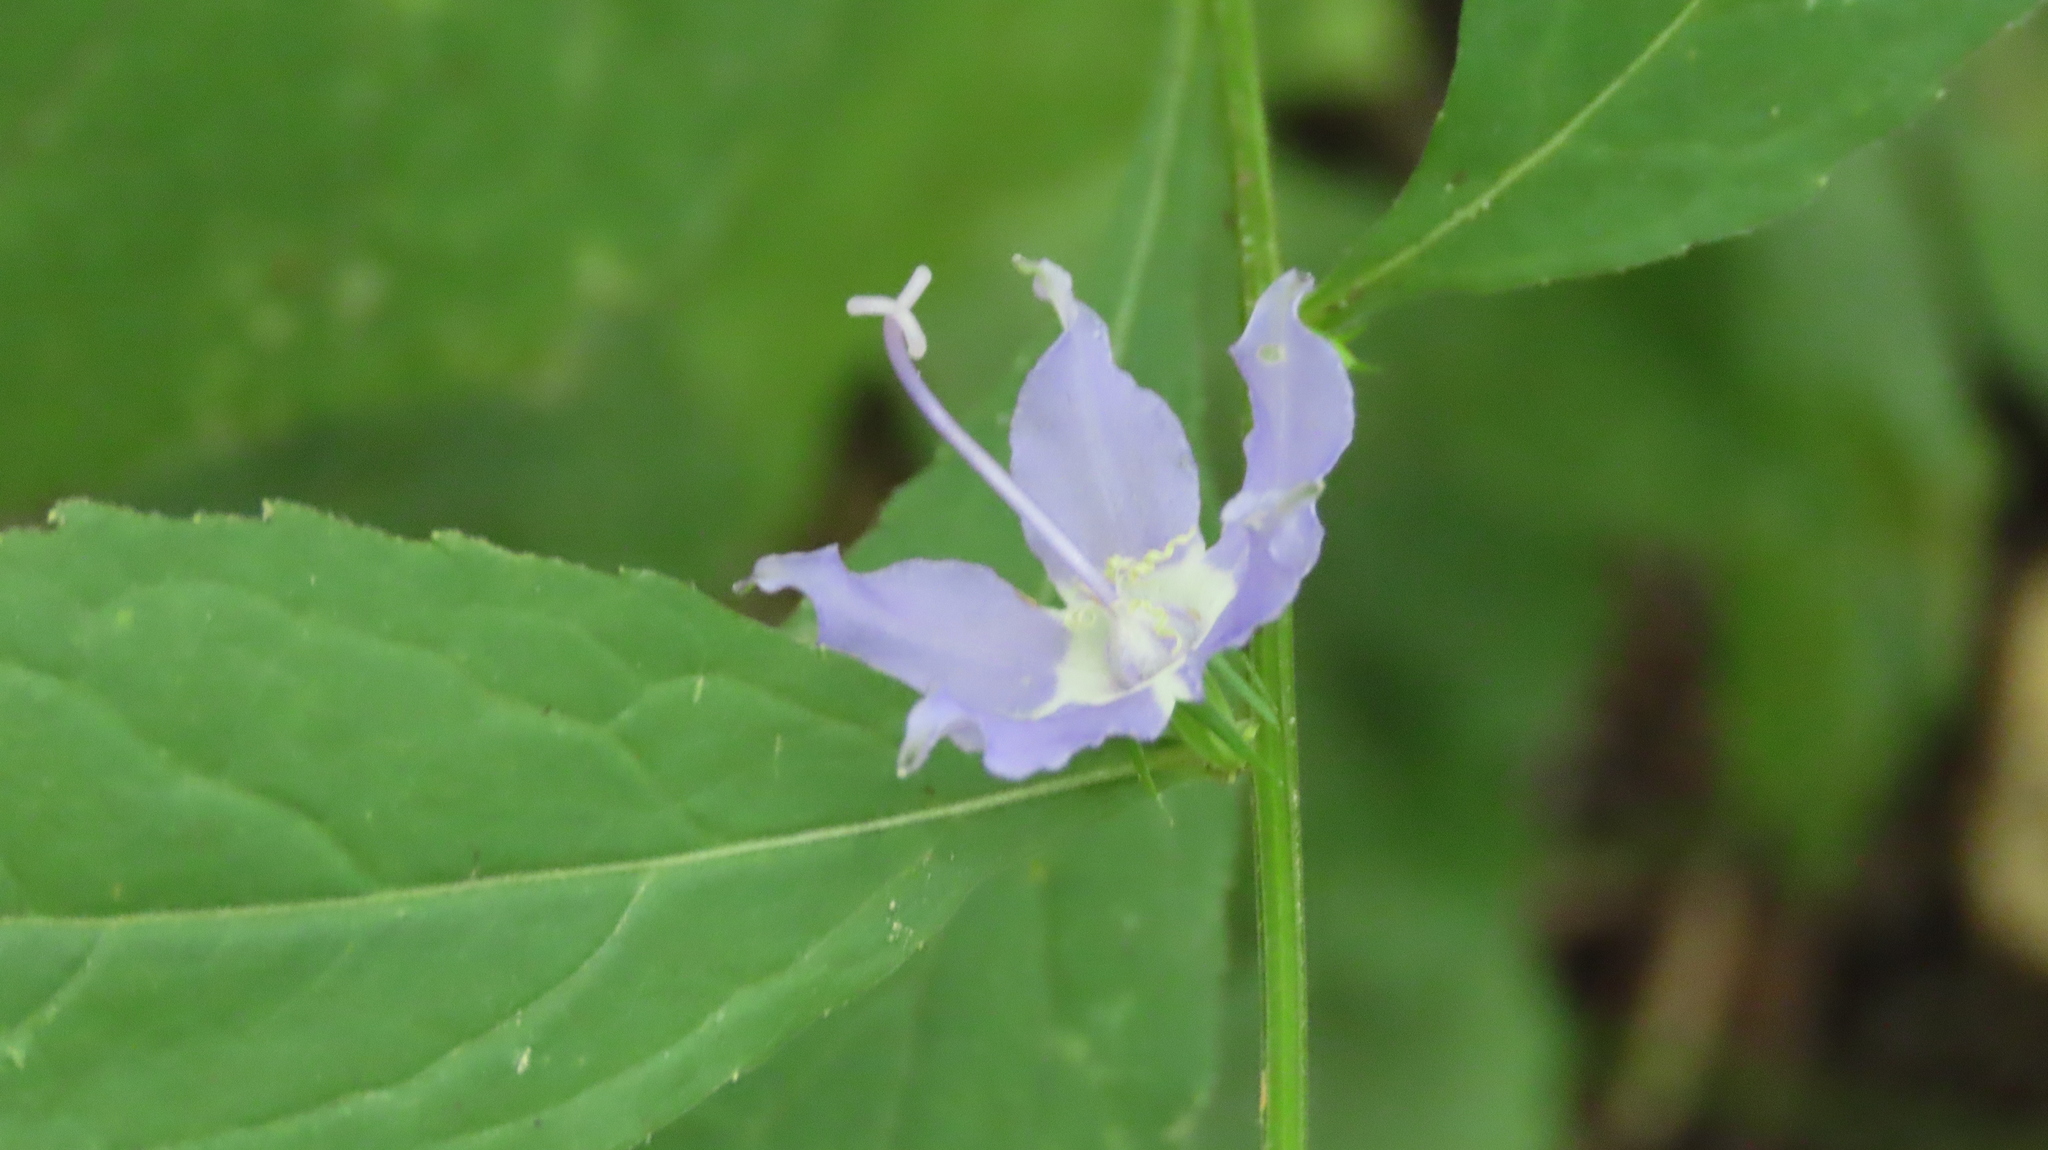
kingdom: Plantae
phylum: Tracheophyta
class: Magnoliopsida
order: Asterales
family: Campanulaceae
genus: Campanulastrum
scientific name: Campanulastrum americanum
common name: American bellflower
